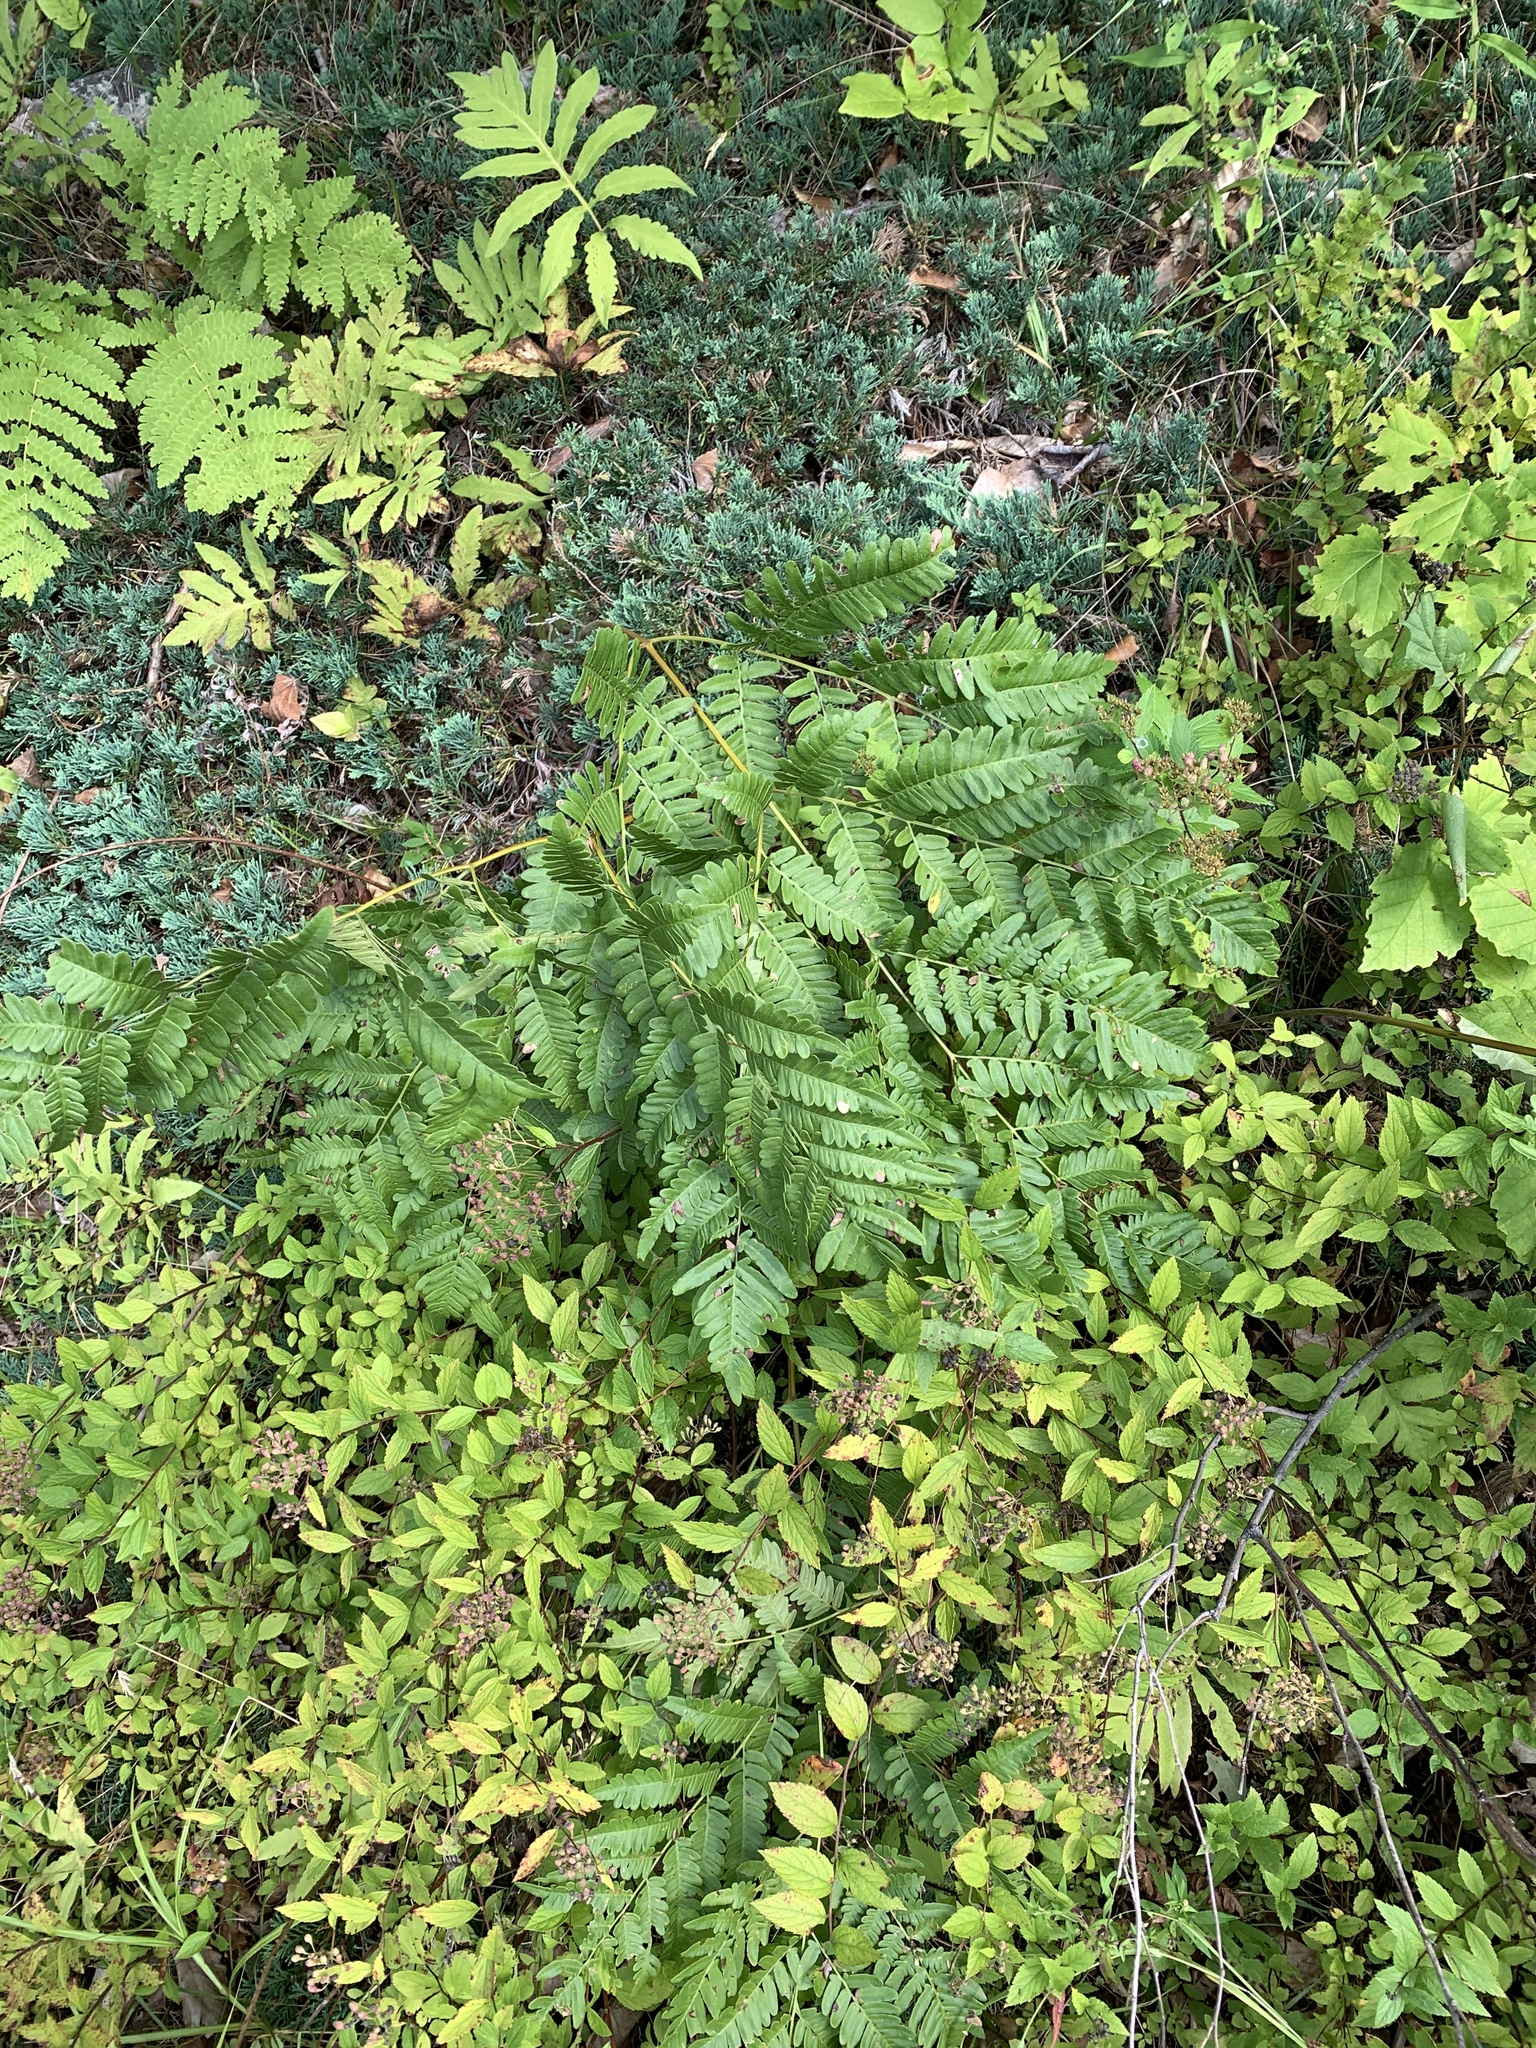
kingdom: Plantae
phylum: Tracheophyta
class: Polypodiopsida
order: Polypodiales
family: Dennstaedtiaceae
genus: Pteridium
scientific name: Pteridium aquilinum
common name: Bracken
